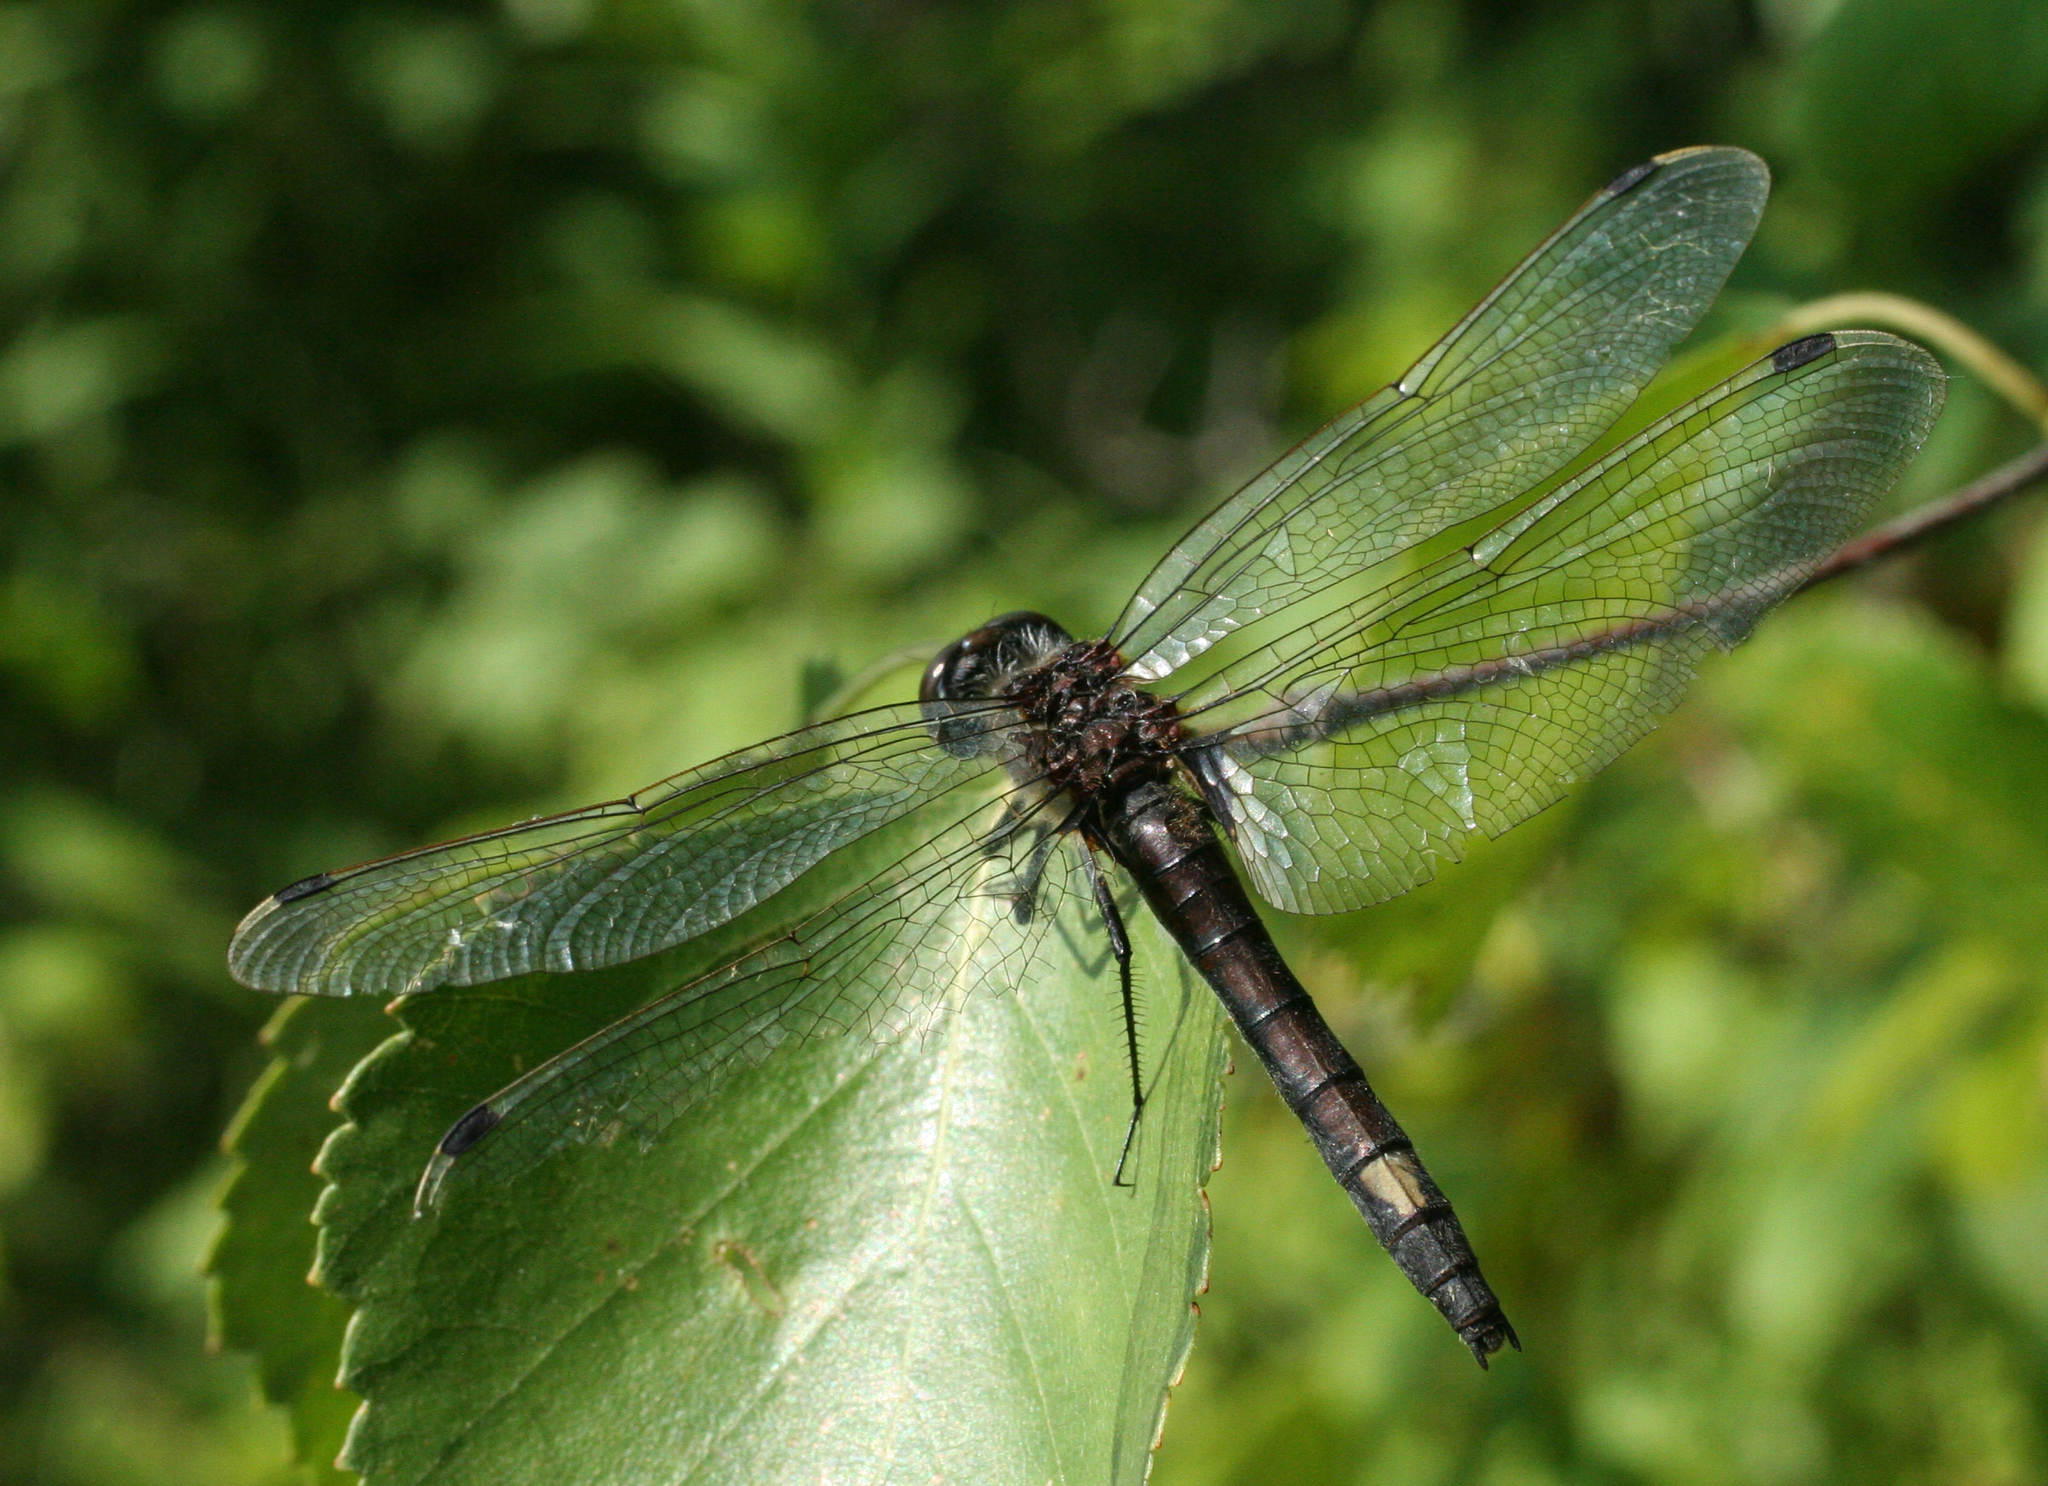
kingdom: Animalia
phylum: Arthropoda
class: Insecta
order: Odonata
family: Libellulidae
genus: Leucorrhinia
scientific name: Leucorrhinia pectoralis
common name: Yellow-spotted whiteface
